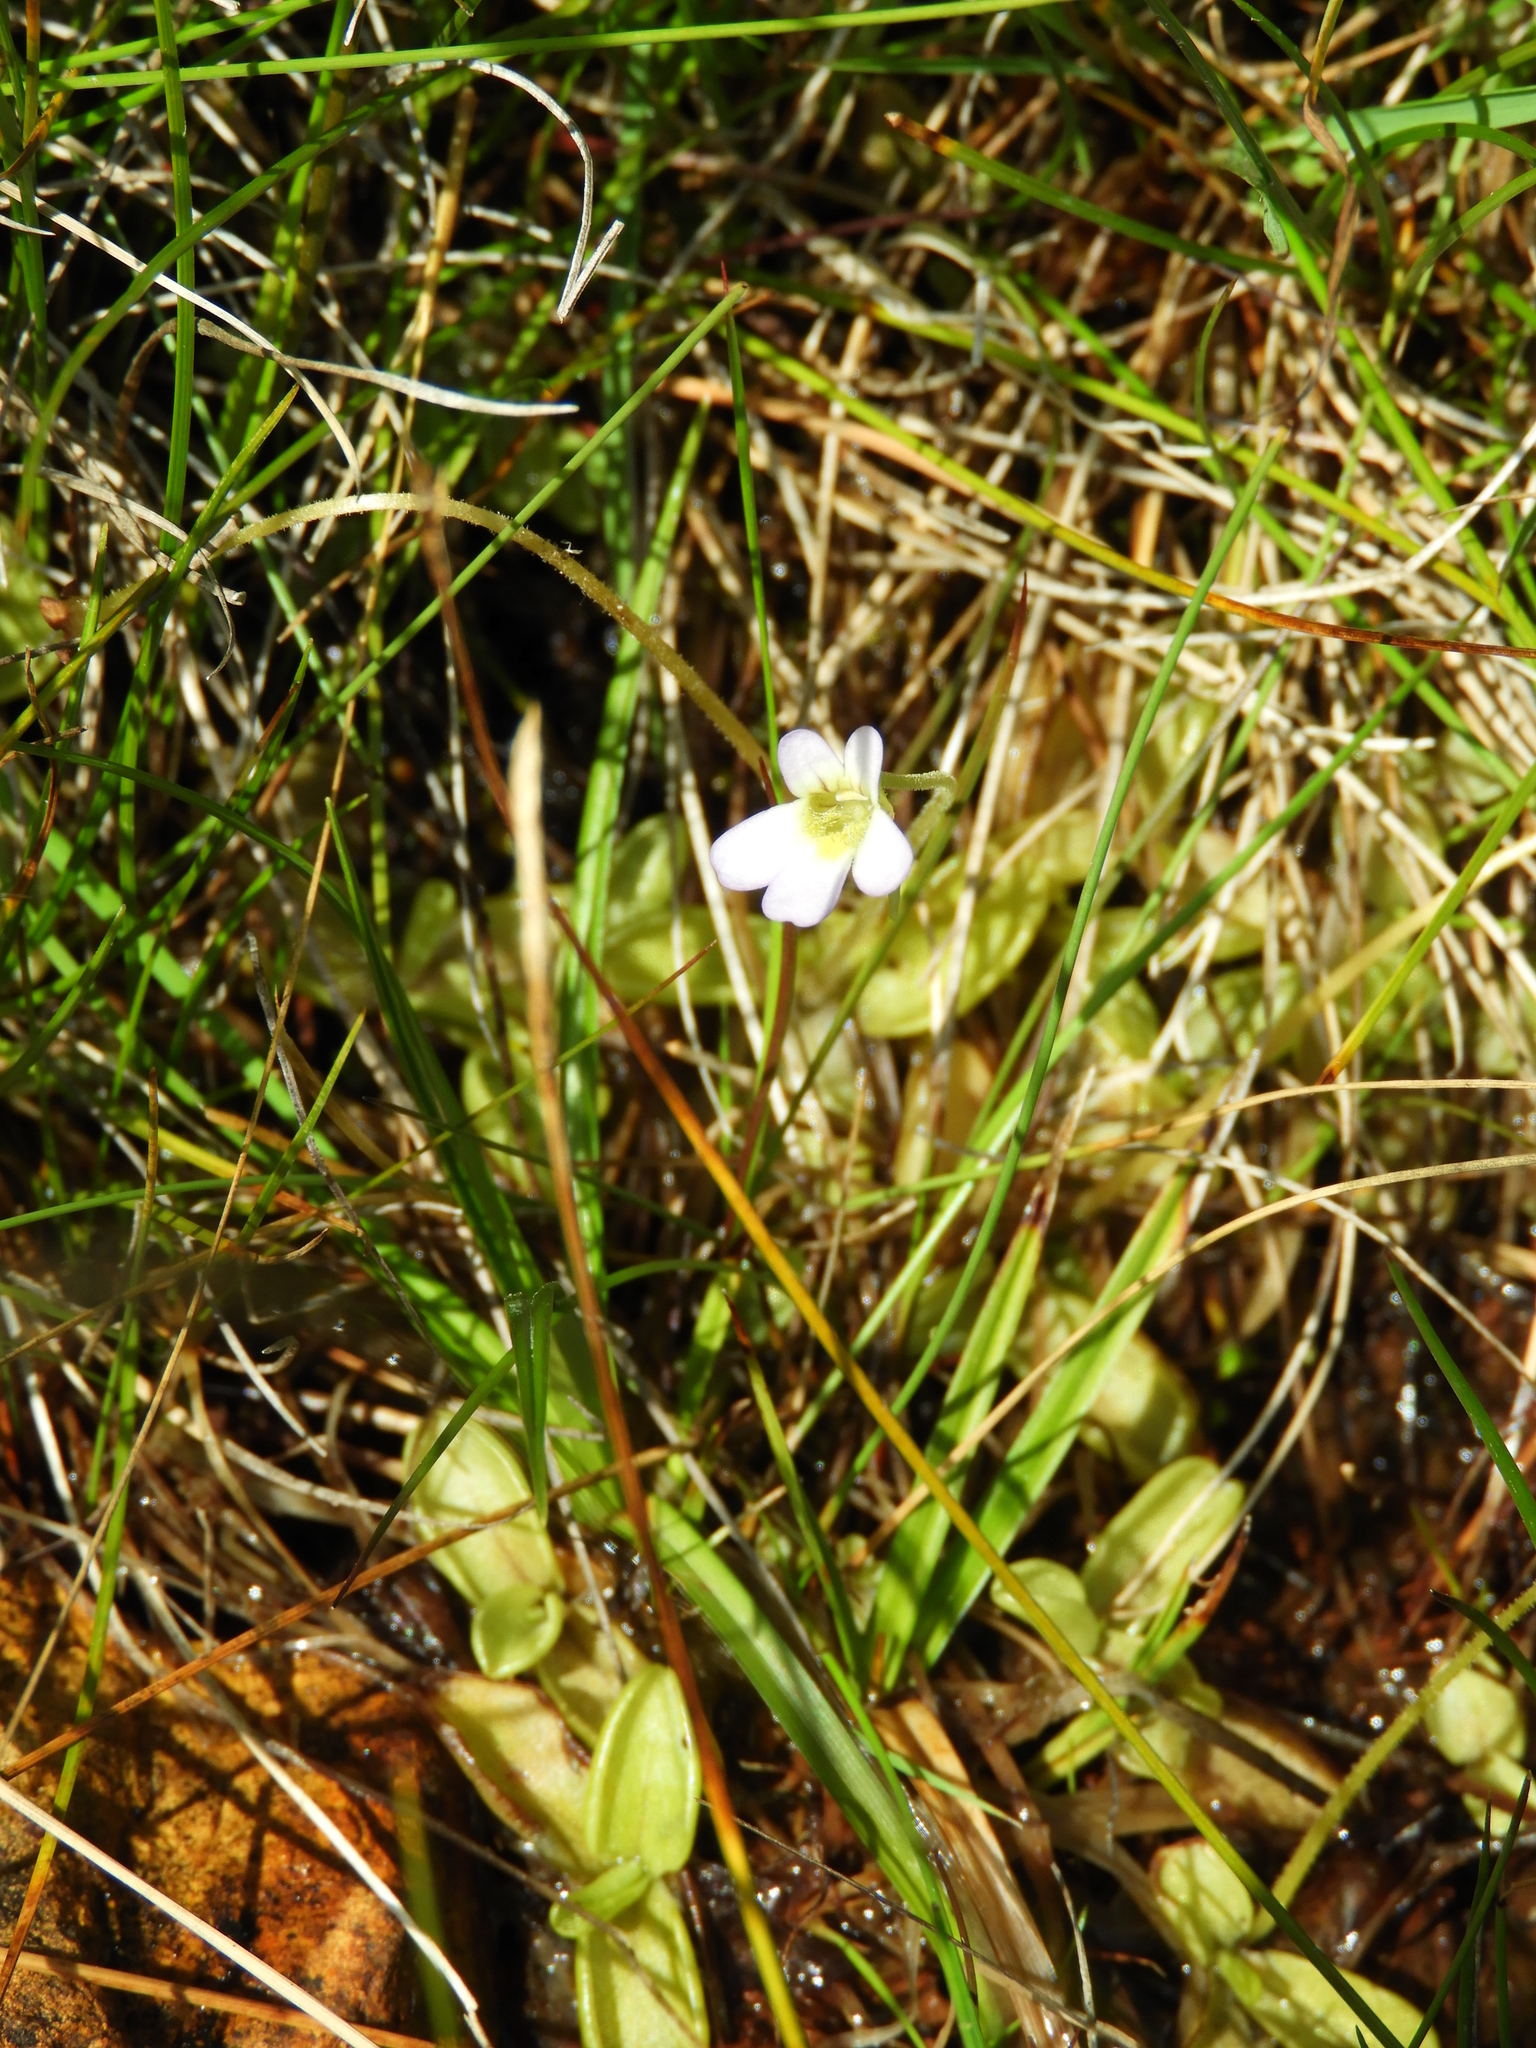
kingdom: Plantae
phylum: Tracheophyta
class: Magnoliopsida
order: Lamiales
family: Lentibulariaceae
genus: Pinguicula
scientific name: Pinguicula crystallina
